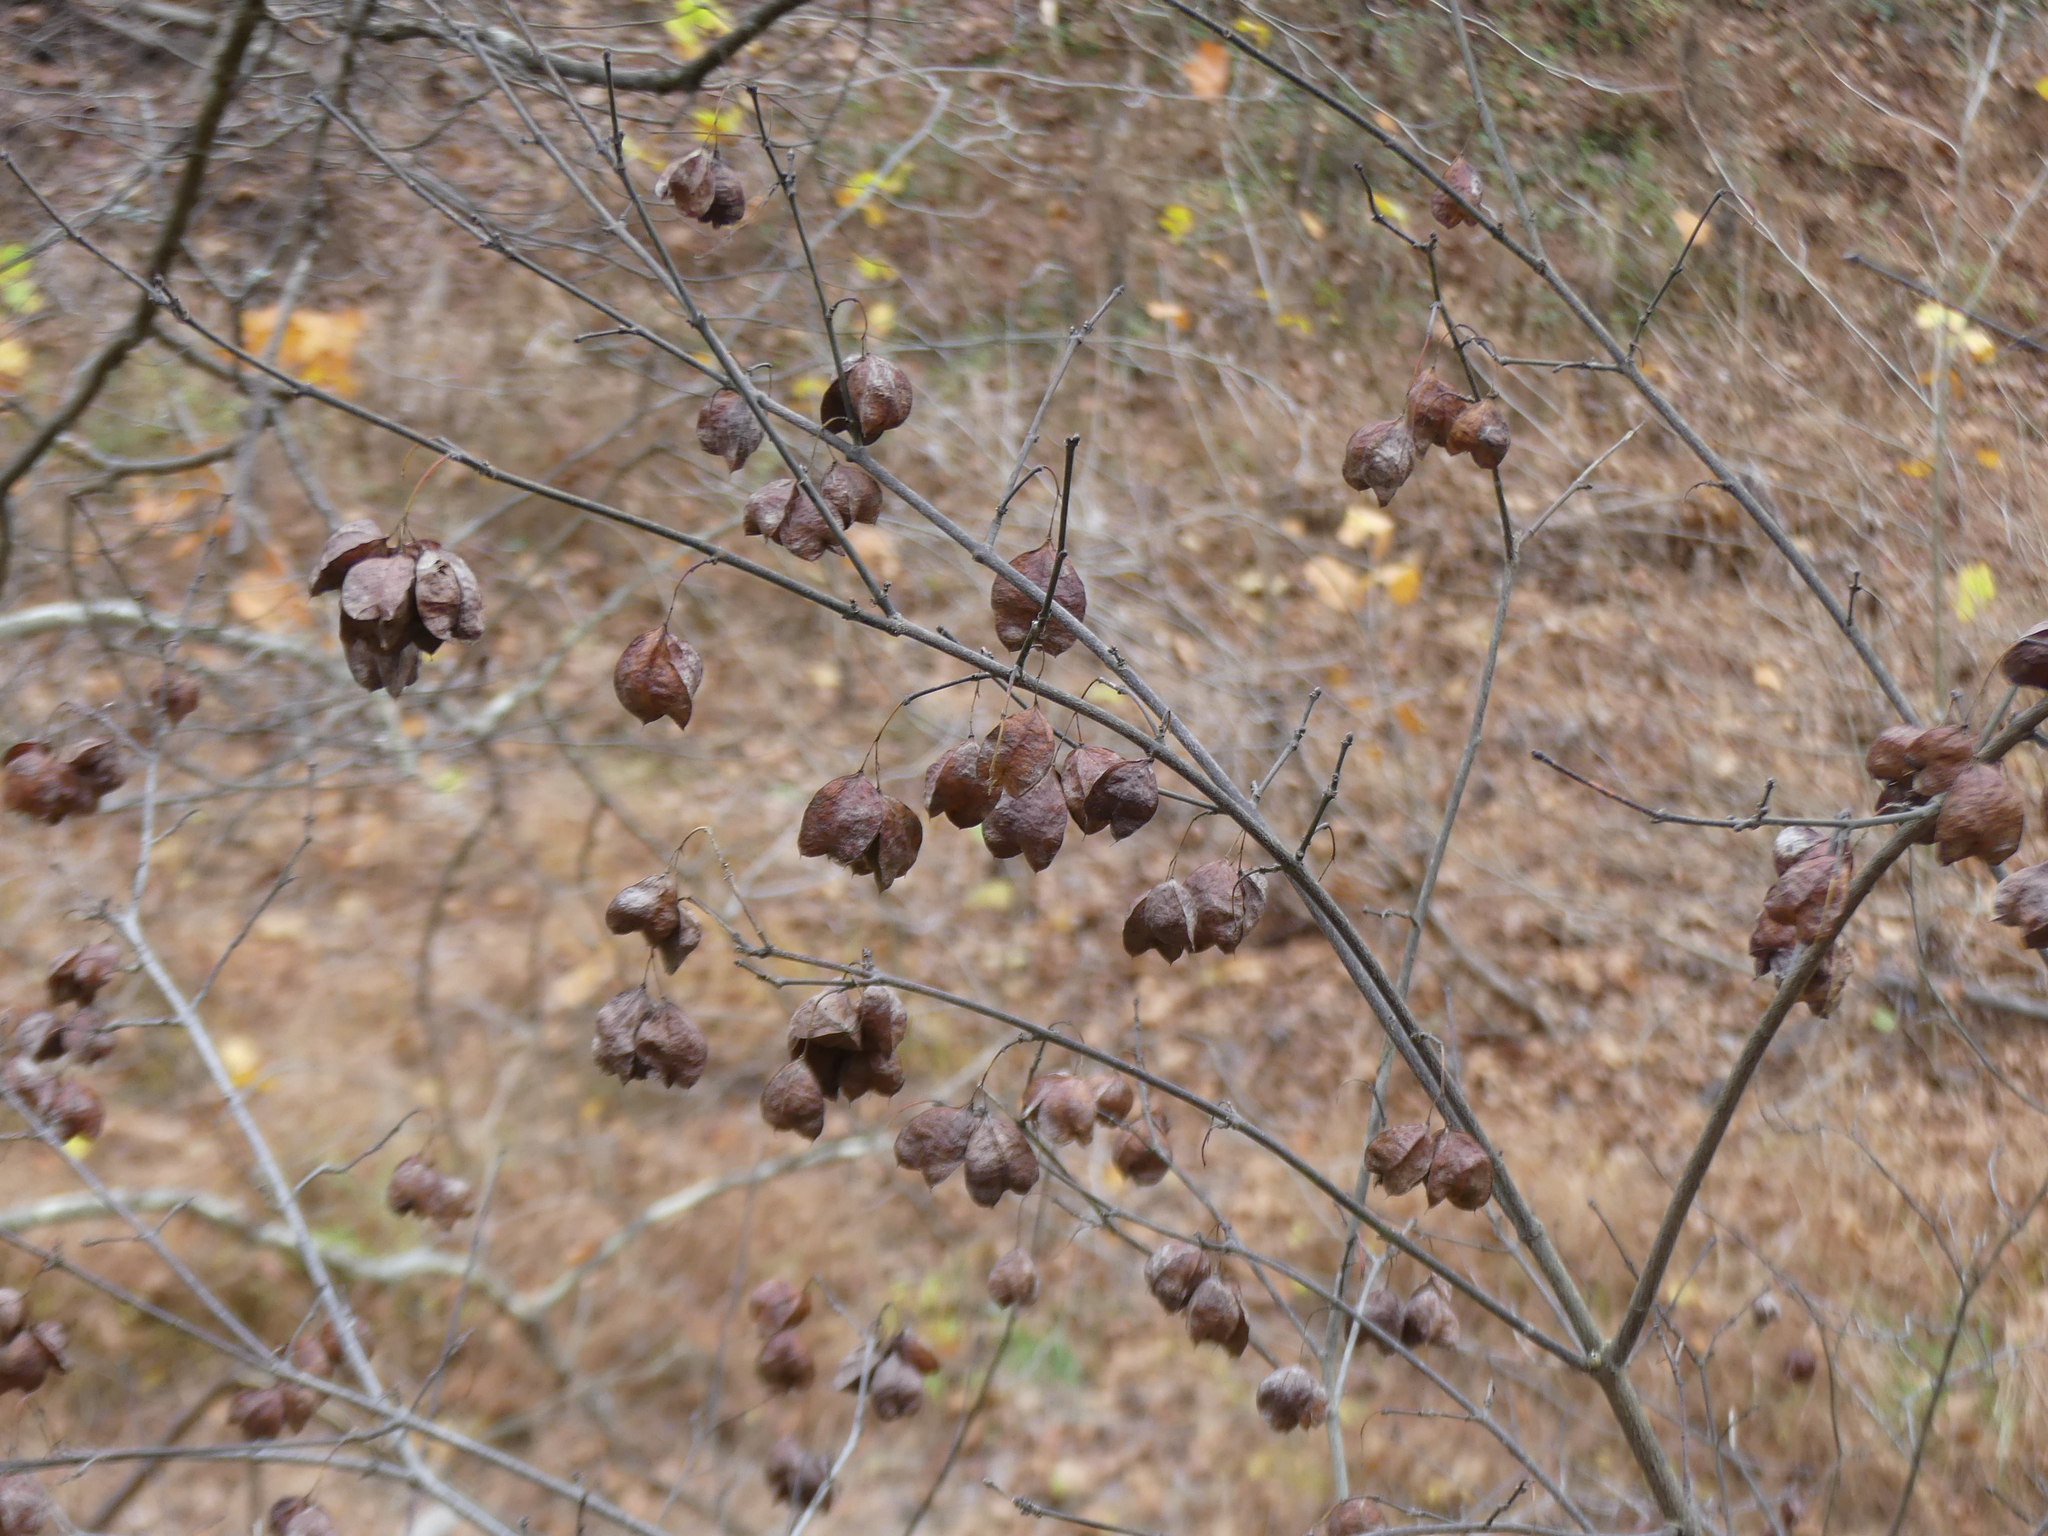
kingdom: Plantae
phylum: Tracheophyta
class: Magnoliopsida
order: Crossosomatales
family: Staphyleaceae
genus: Staphylea
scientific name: Staphylea trifolia
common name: American bladdernut
